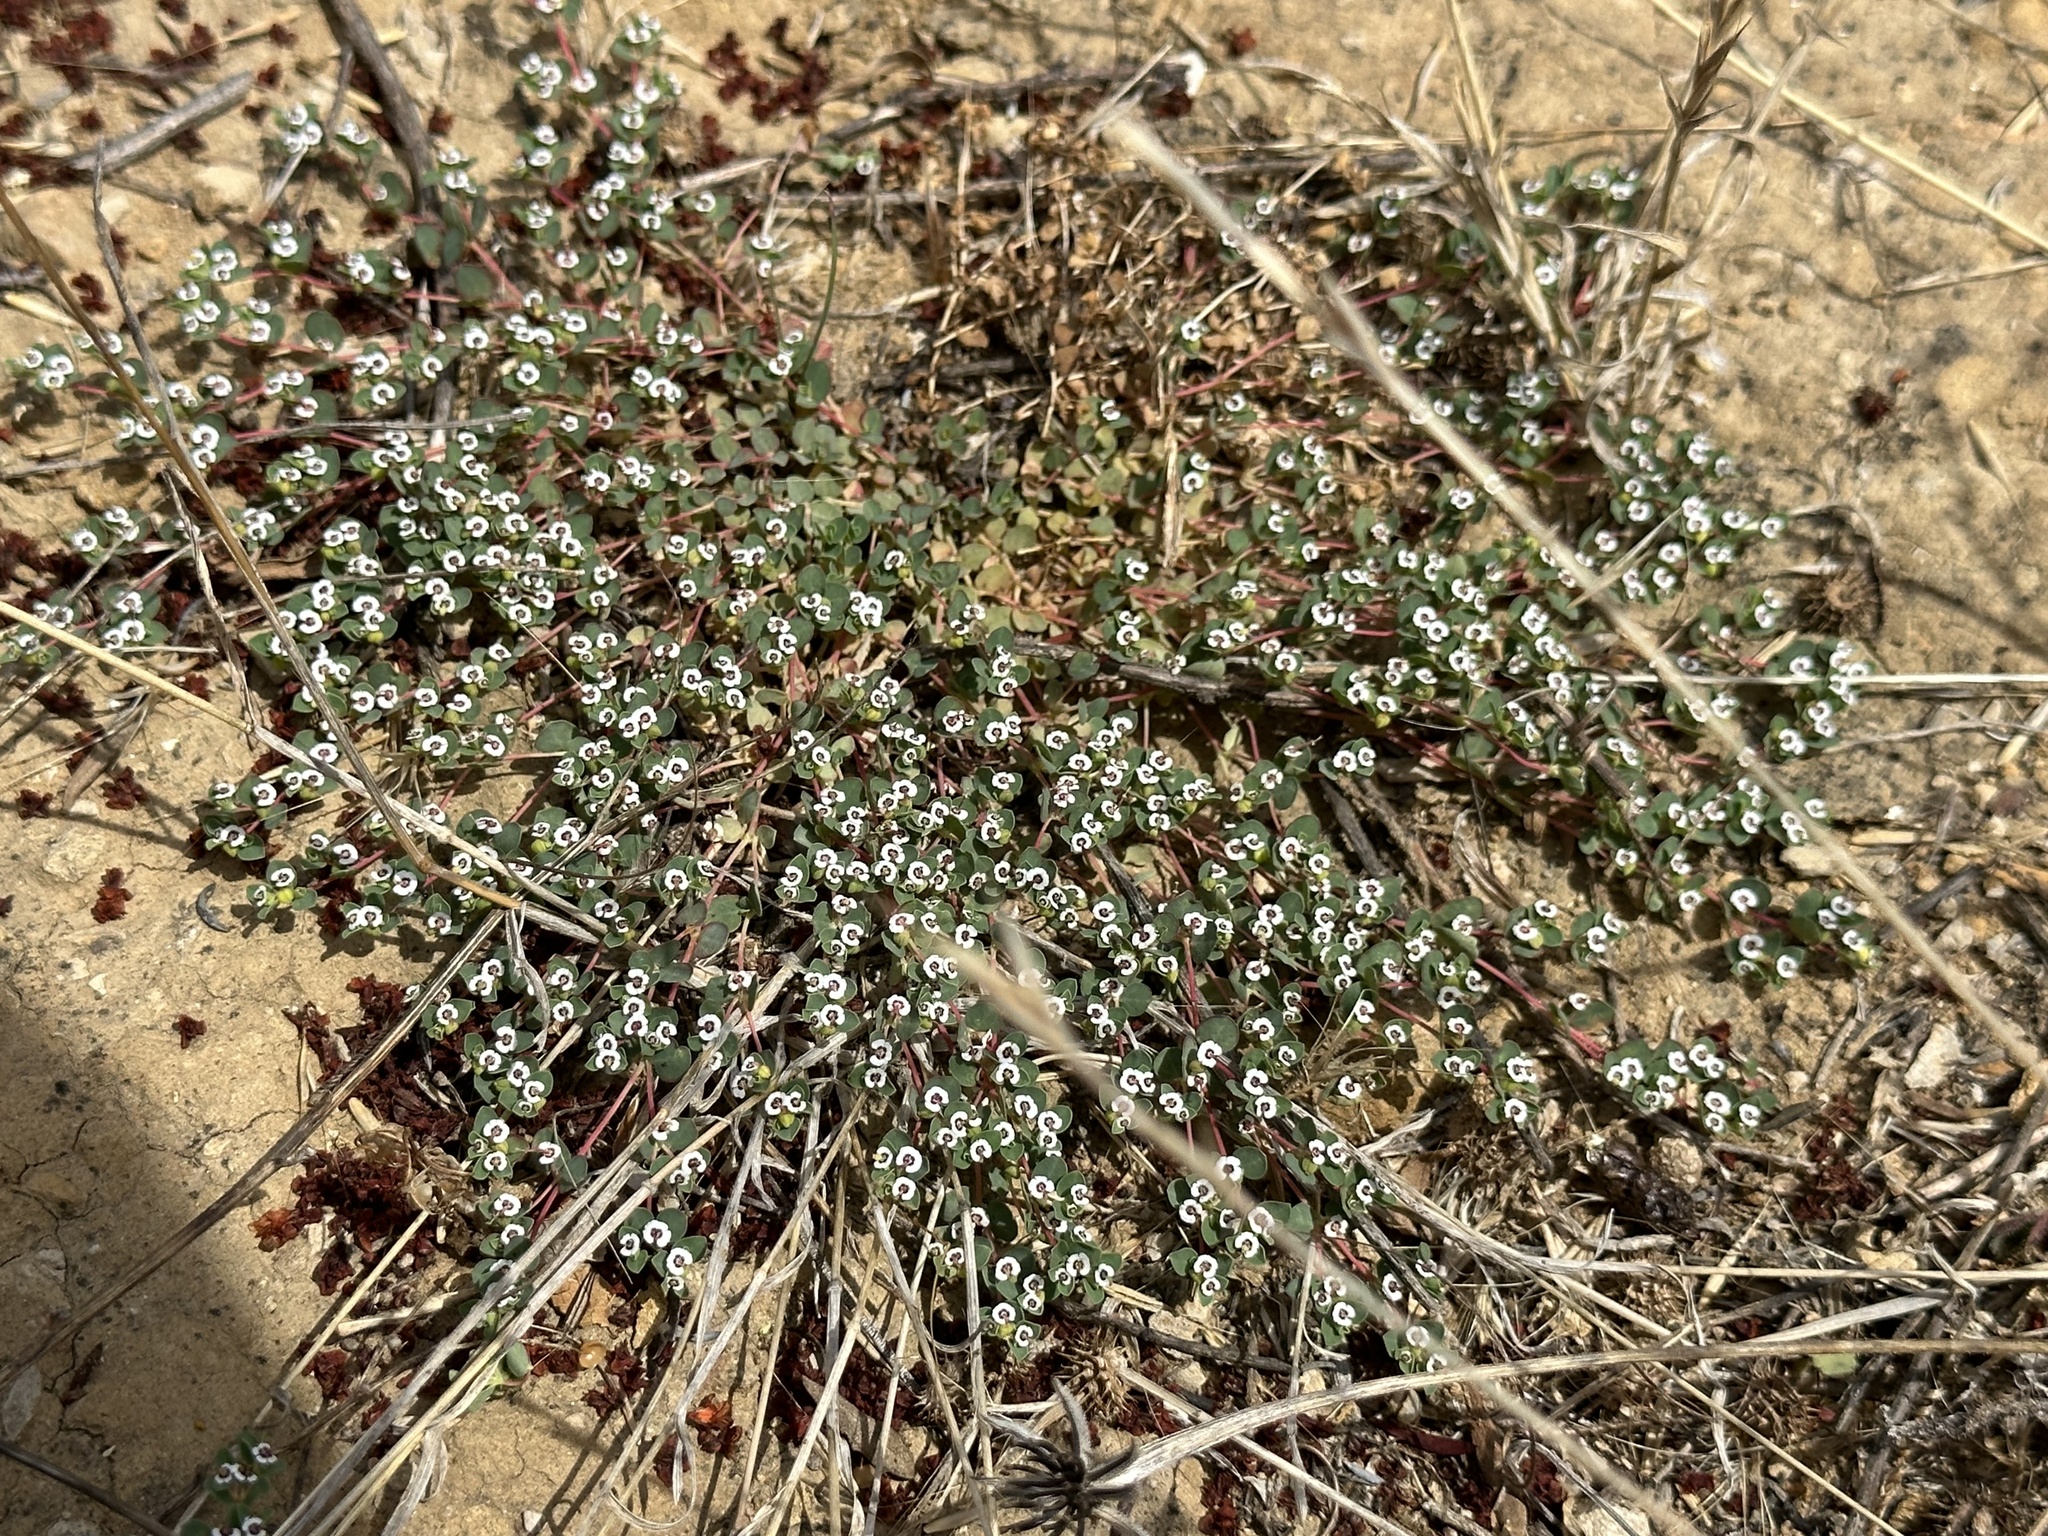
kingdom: Plantae
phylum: Tracheophyta
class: Magnoliopsida
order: Malpighiales
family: Euphorbiaceae
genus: Euphorbia
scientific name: Euphorbia polycarpa
